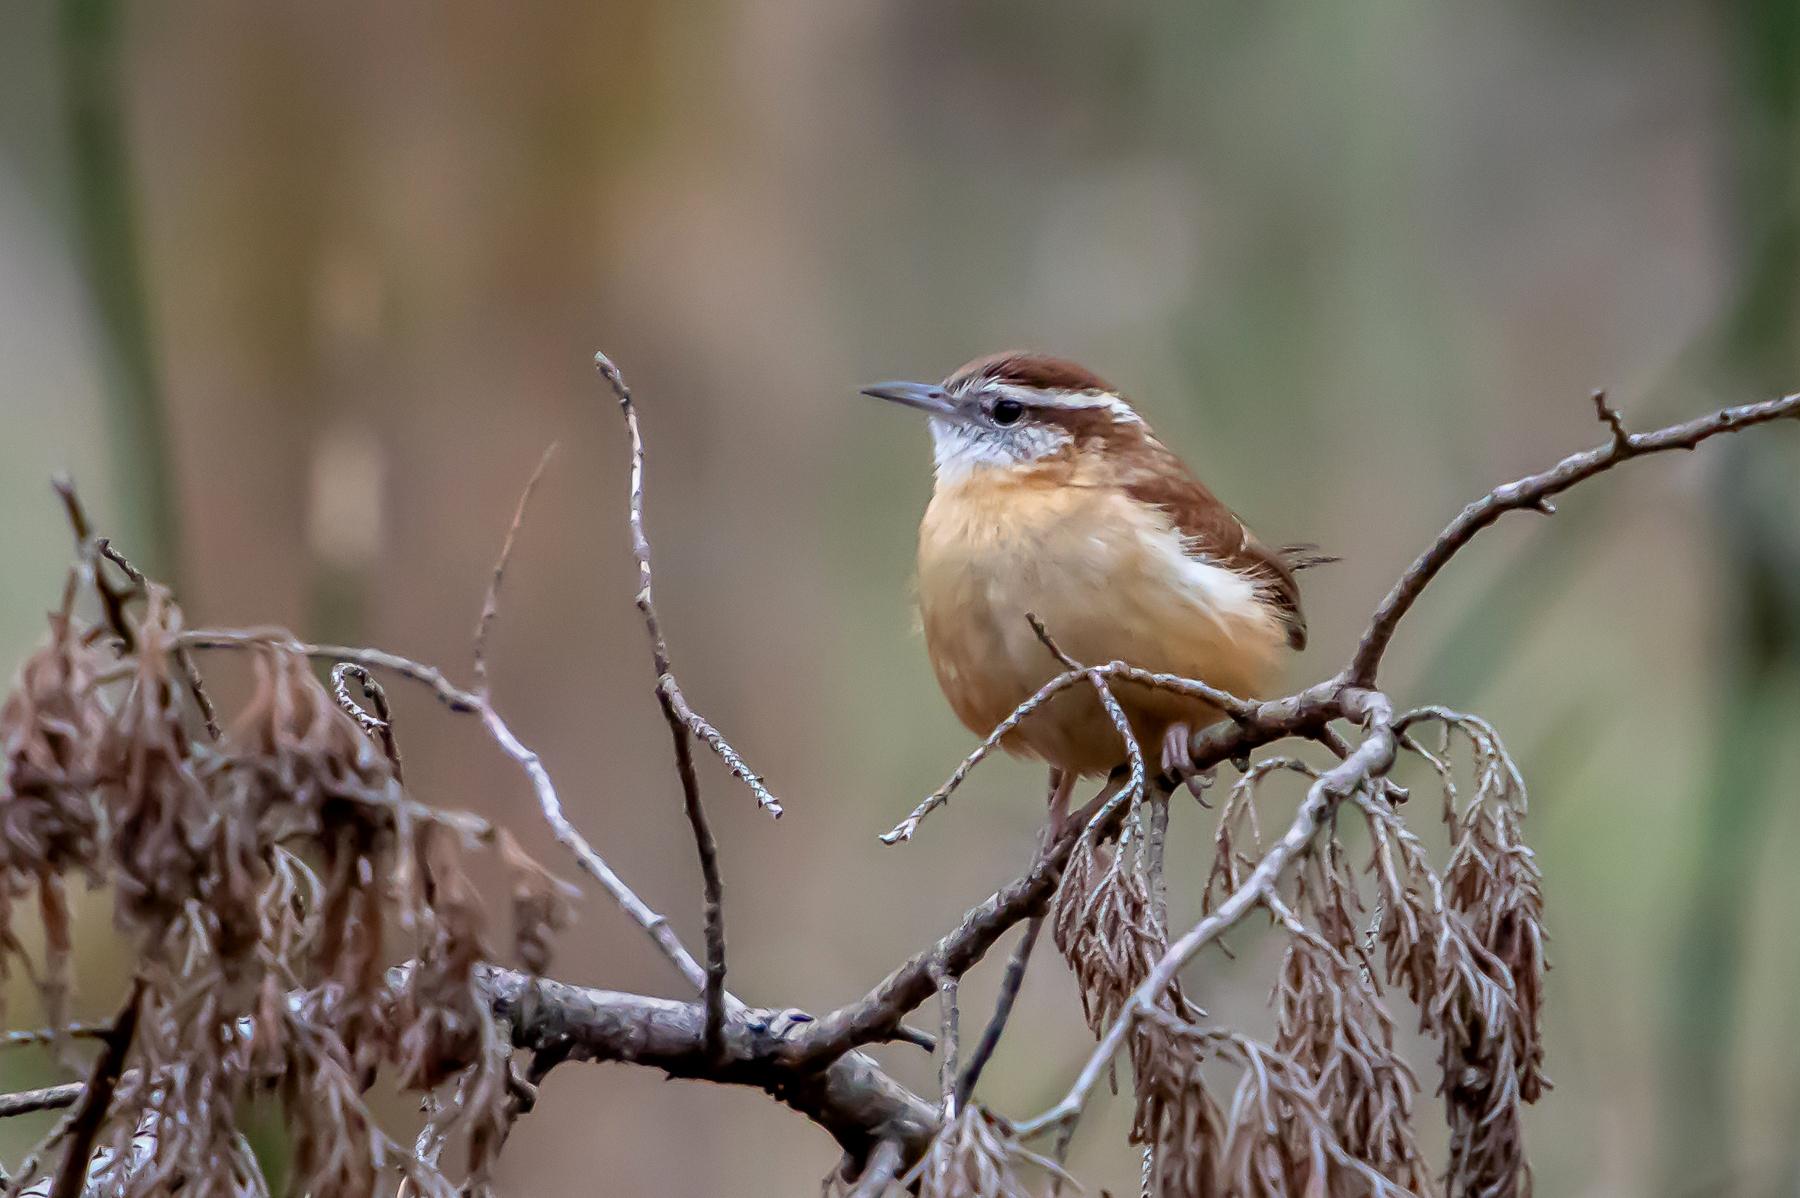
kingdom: Animalia
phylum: Chordata
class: Aves
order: Passeriformes
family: Troglodytidae
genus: Thryothorus
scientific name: Thryothorus ludovicianus
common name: Carolina wren
